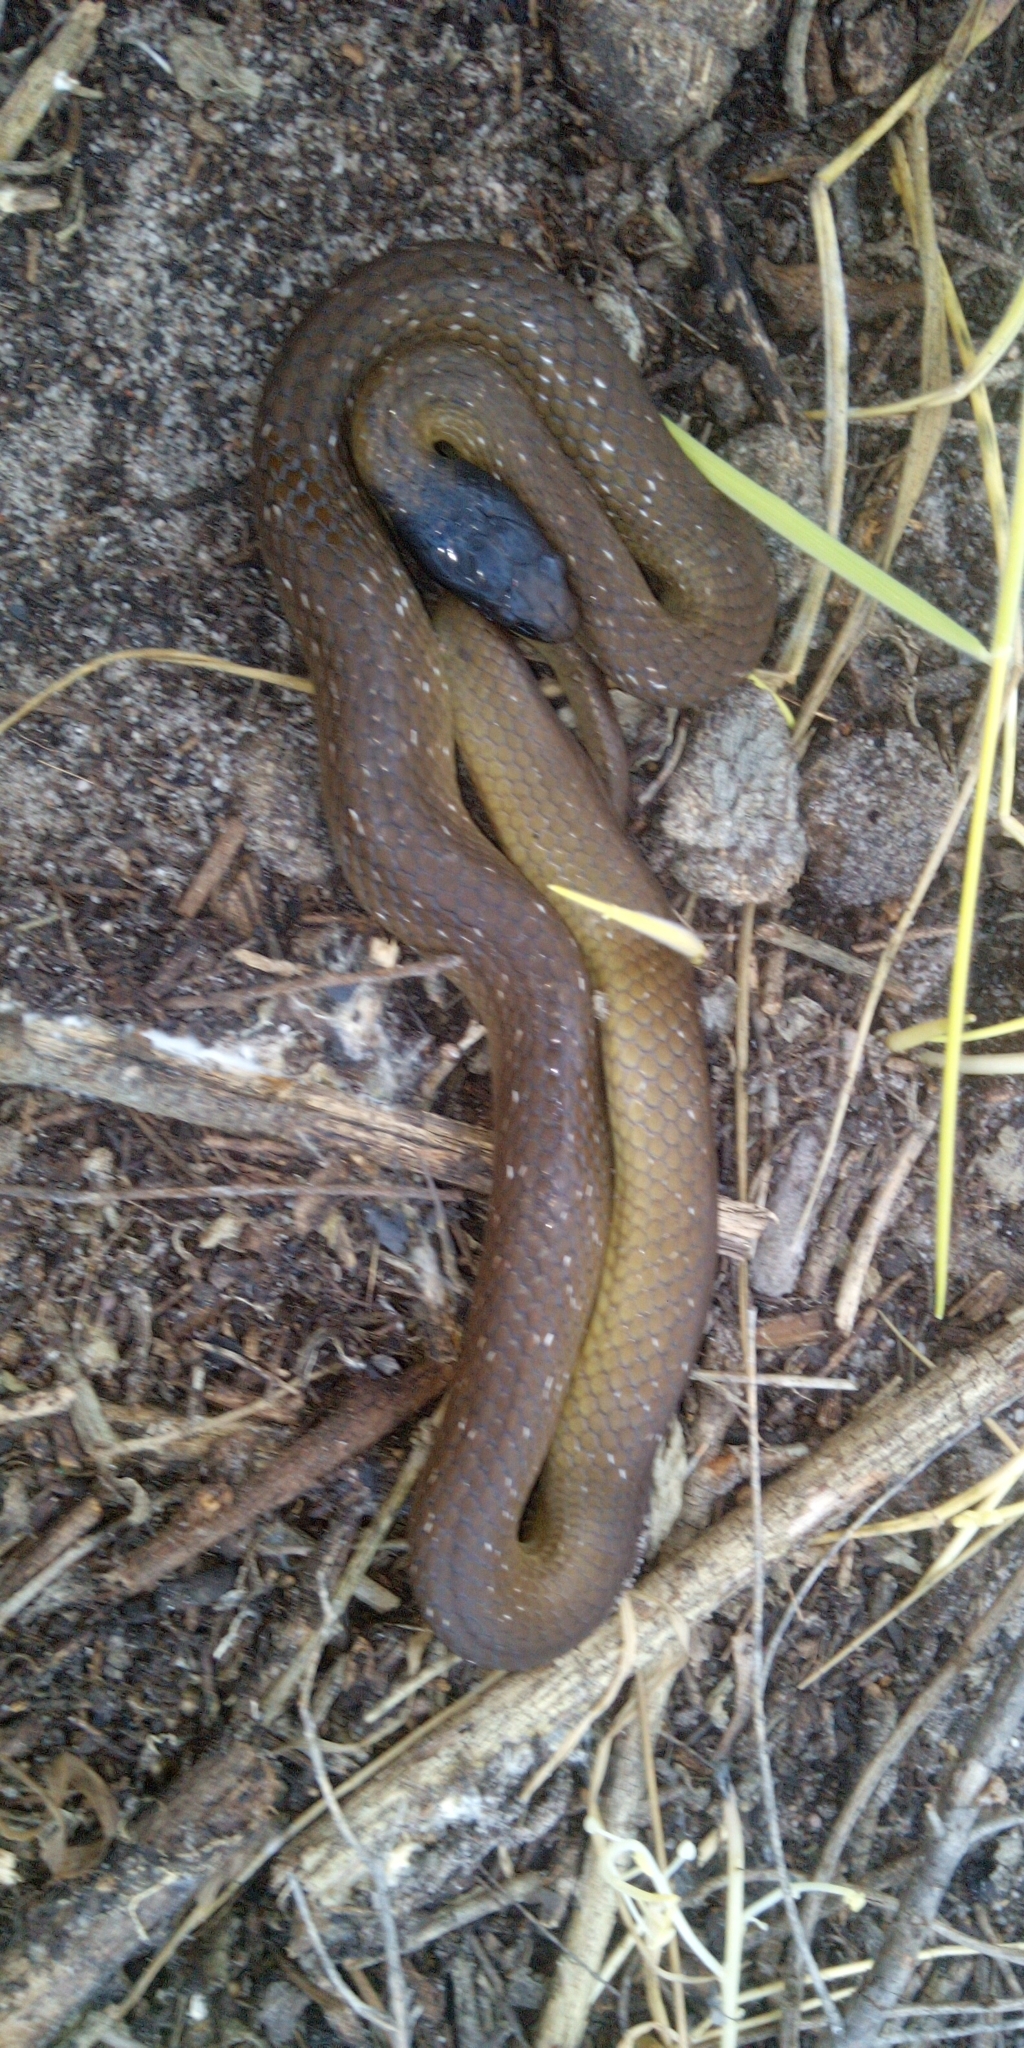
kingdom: Animalia
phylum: Chordata
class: Squamata
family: Colubridae
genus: Crotaphopeltis
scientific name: Crotaphopeltis hotamboeia
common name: Red-lipped snake
